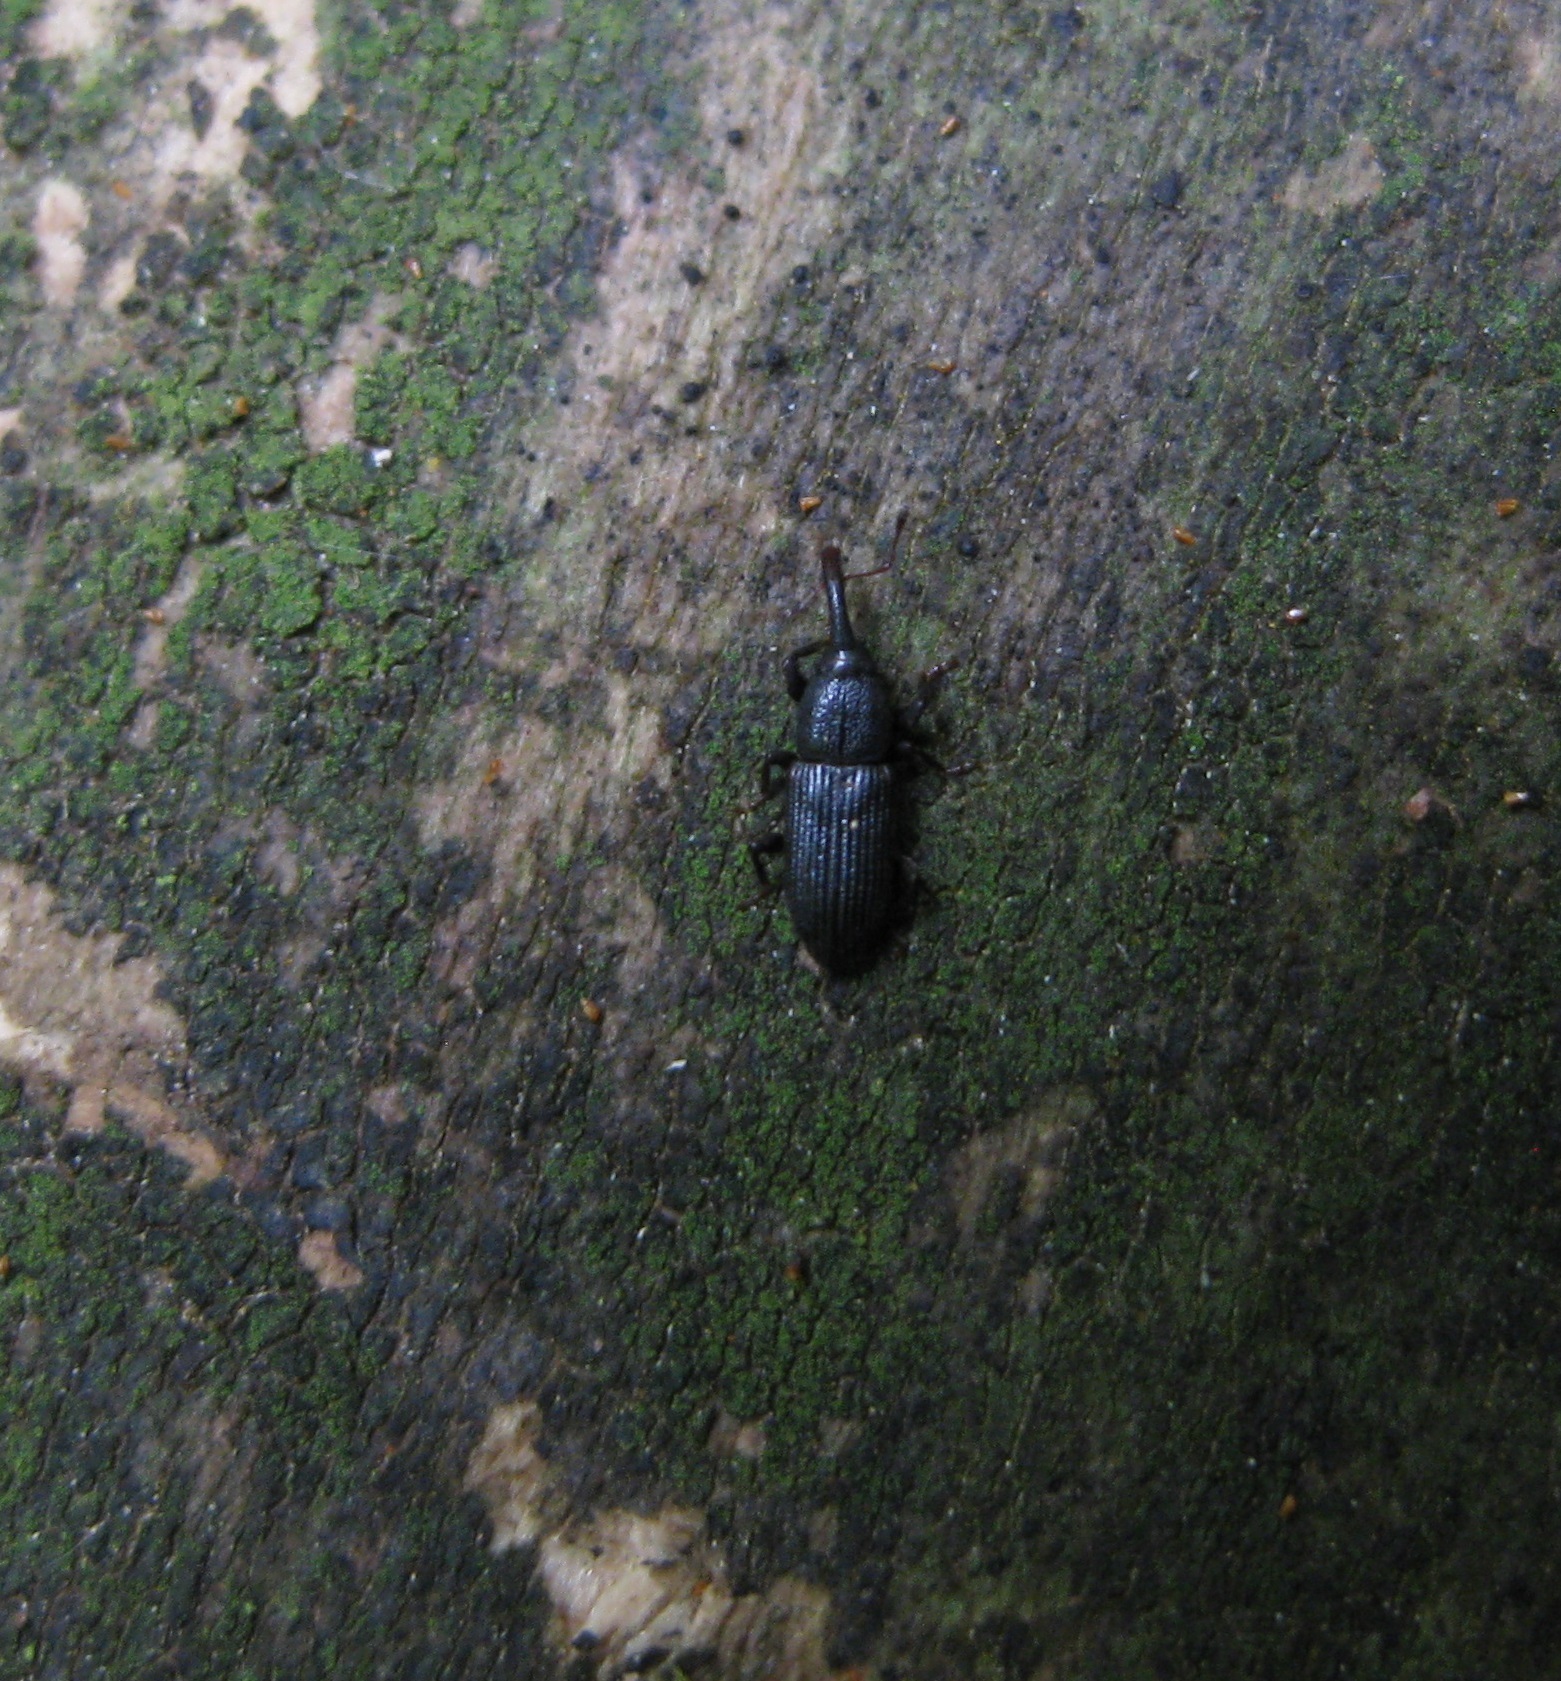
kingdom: Animalia
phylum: Arthropoda
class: Insecta
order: Coleoptera
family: Curculionidae
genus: Arecophaga
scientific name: Arecophaga varia
